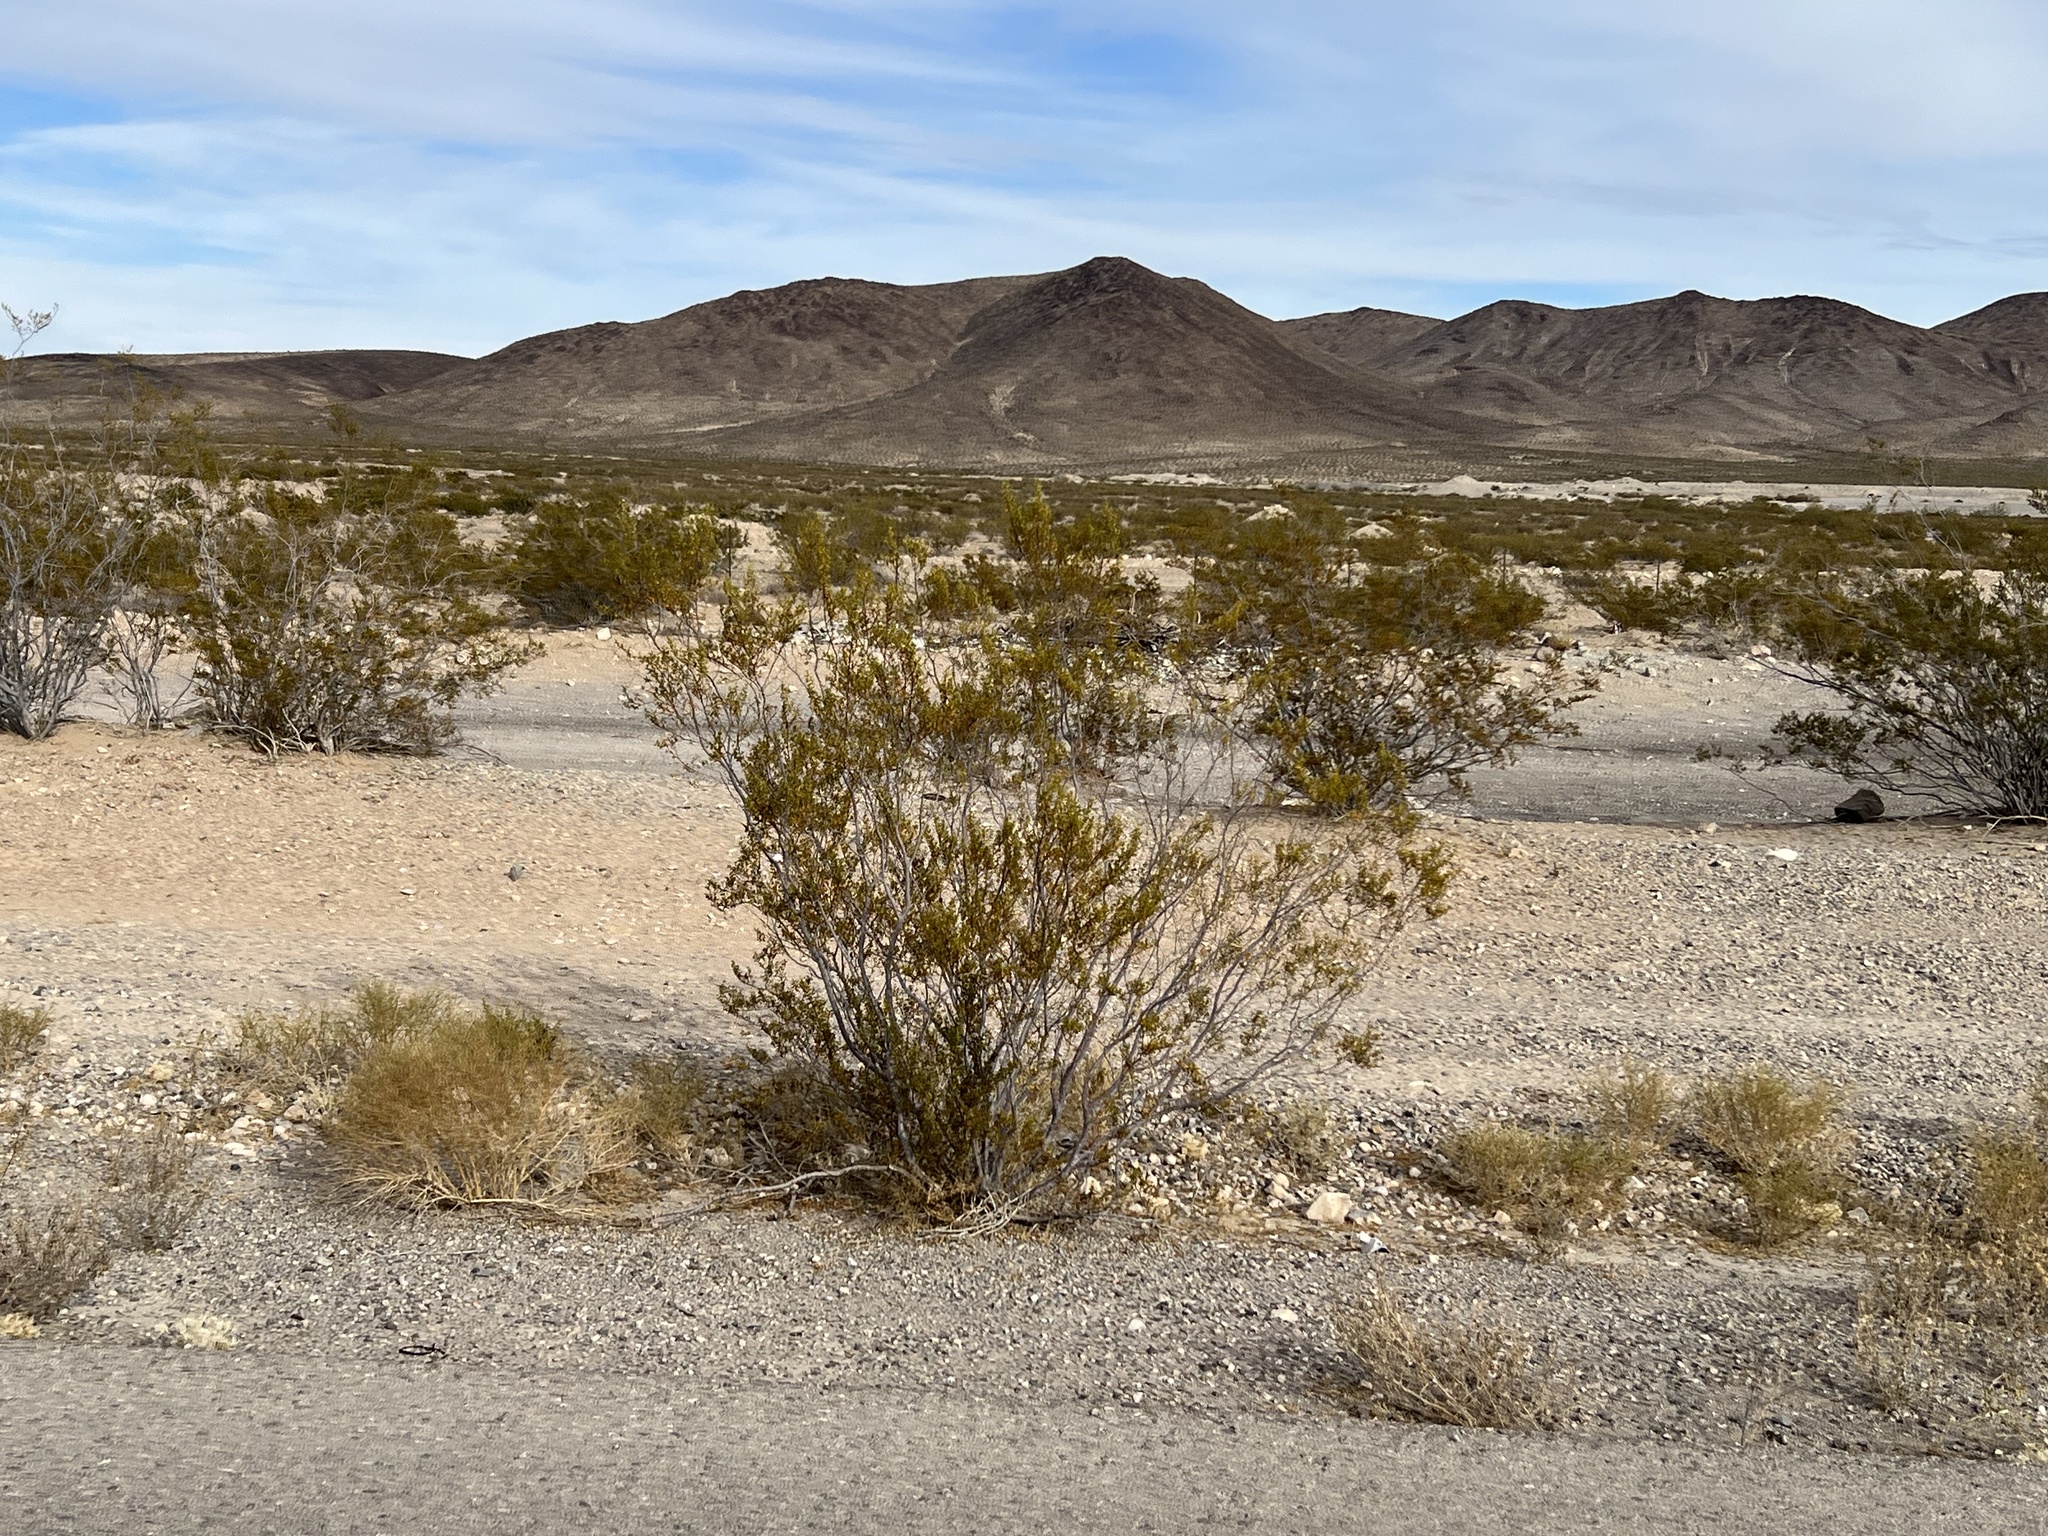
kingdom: Plantae
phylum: Tracheophyta
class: Magnoliopsida
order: Zygophyllales
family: Zygophyllaceae
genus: Larrea
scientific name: Larrea tridentata
